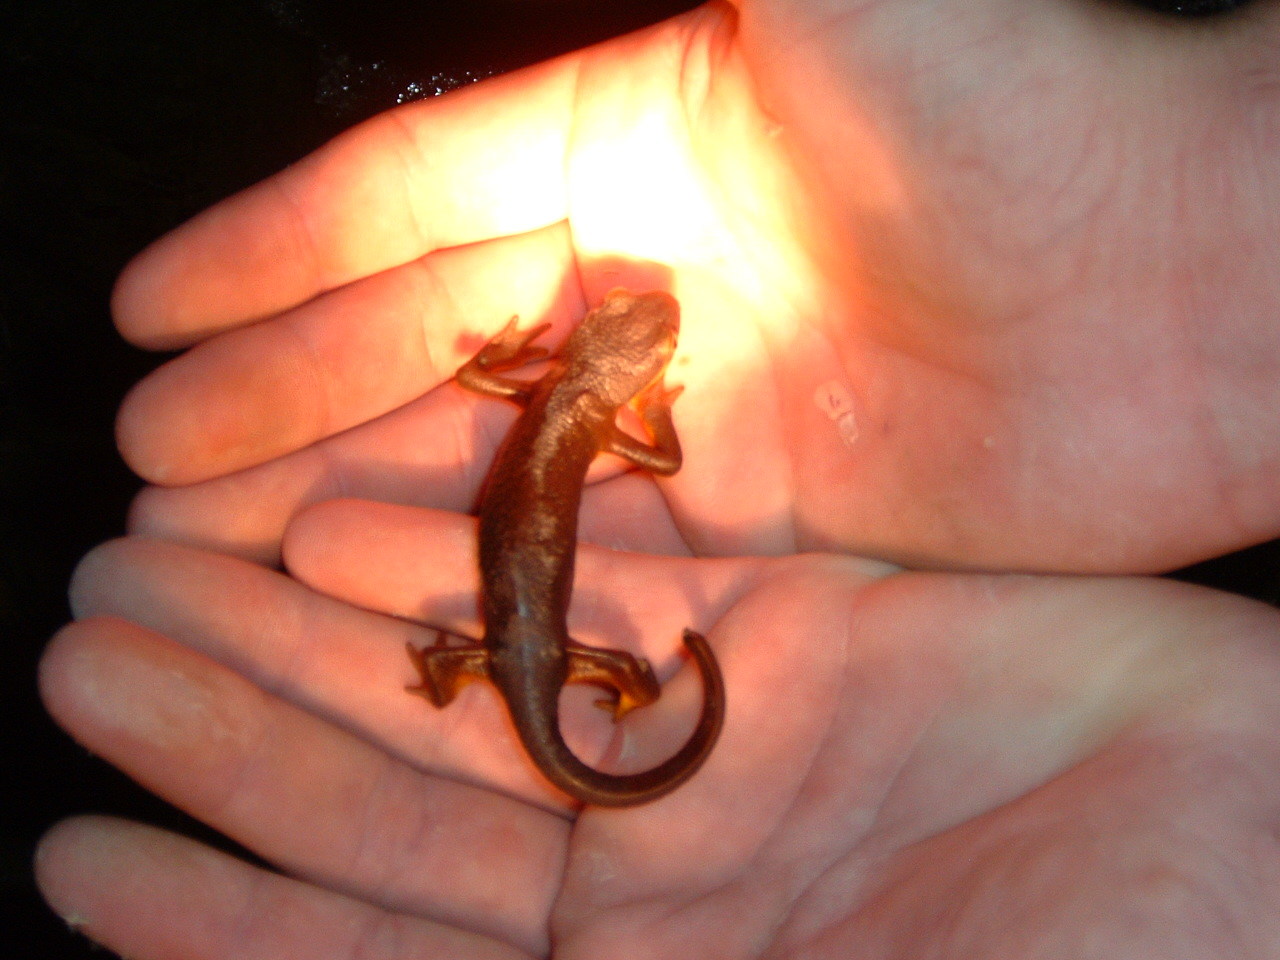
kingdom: Animalia
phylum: Chordata
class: Amphibia
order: Caudata
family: Salamandridae
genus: Taricha
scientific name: Taricha torosa
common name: California newt
